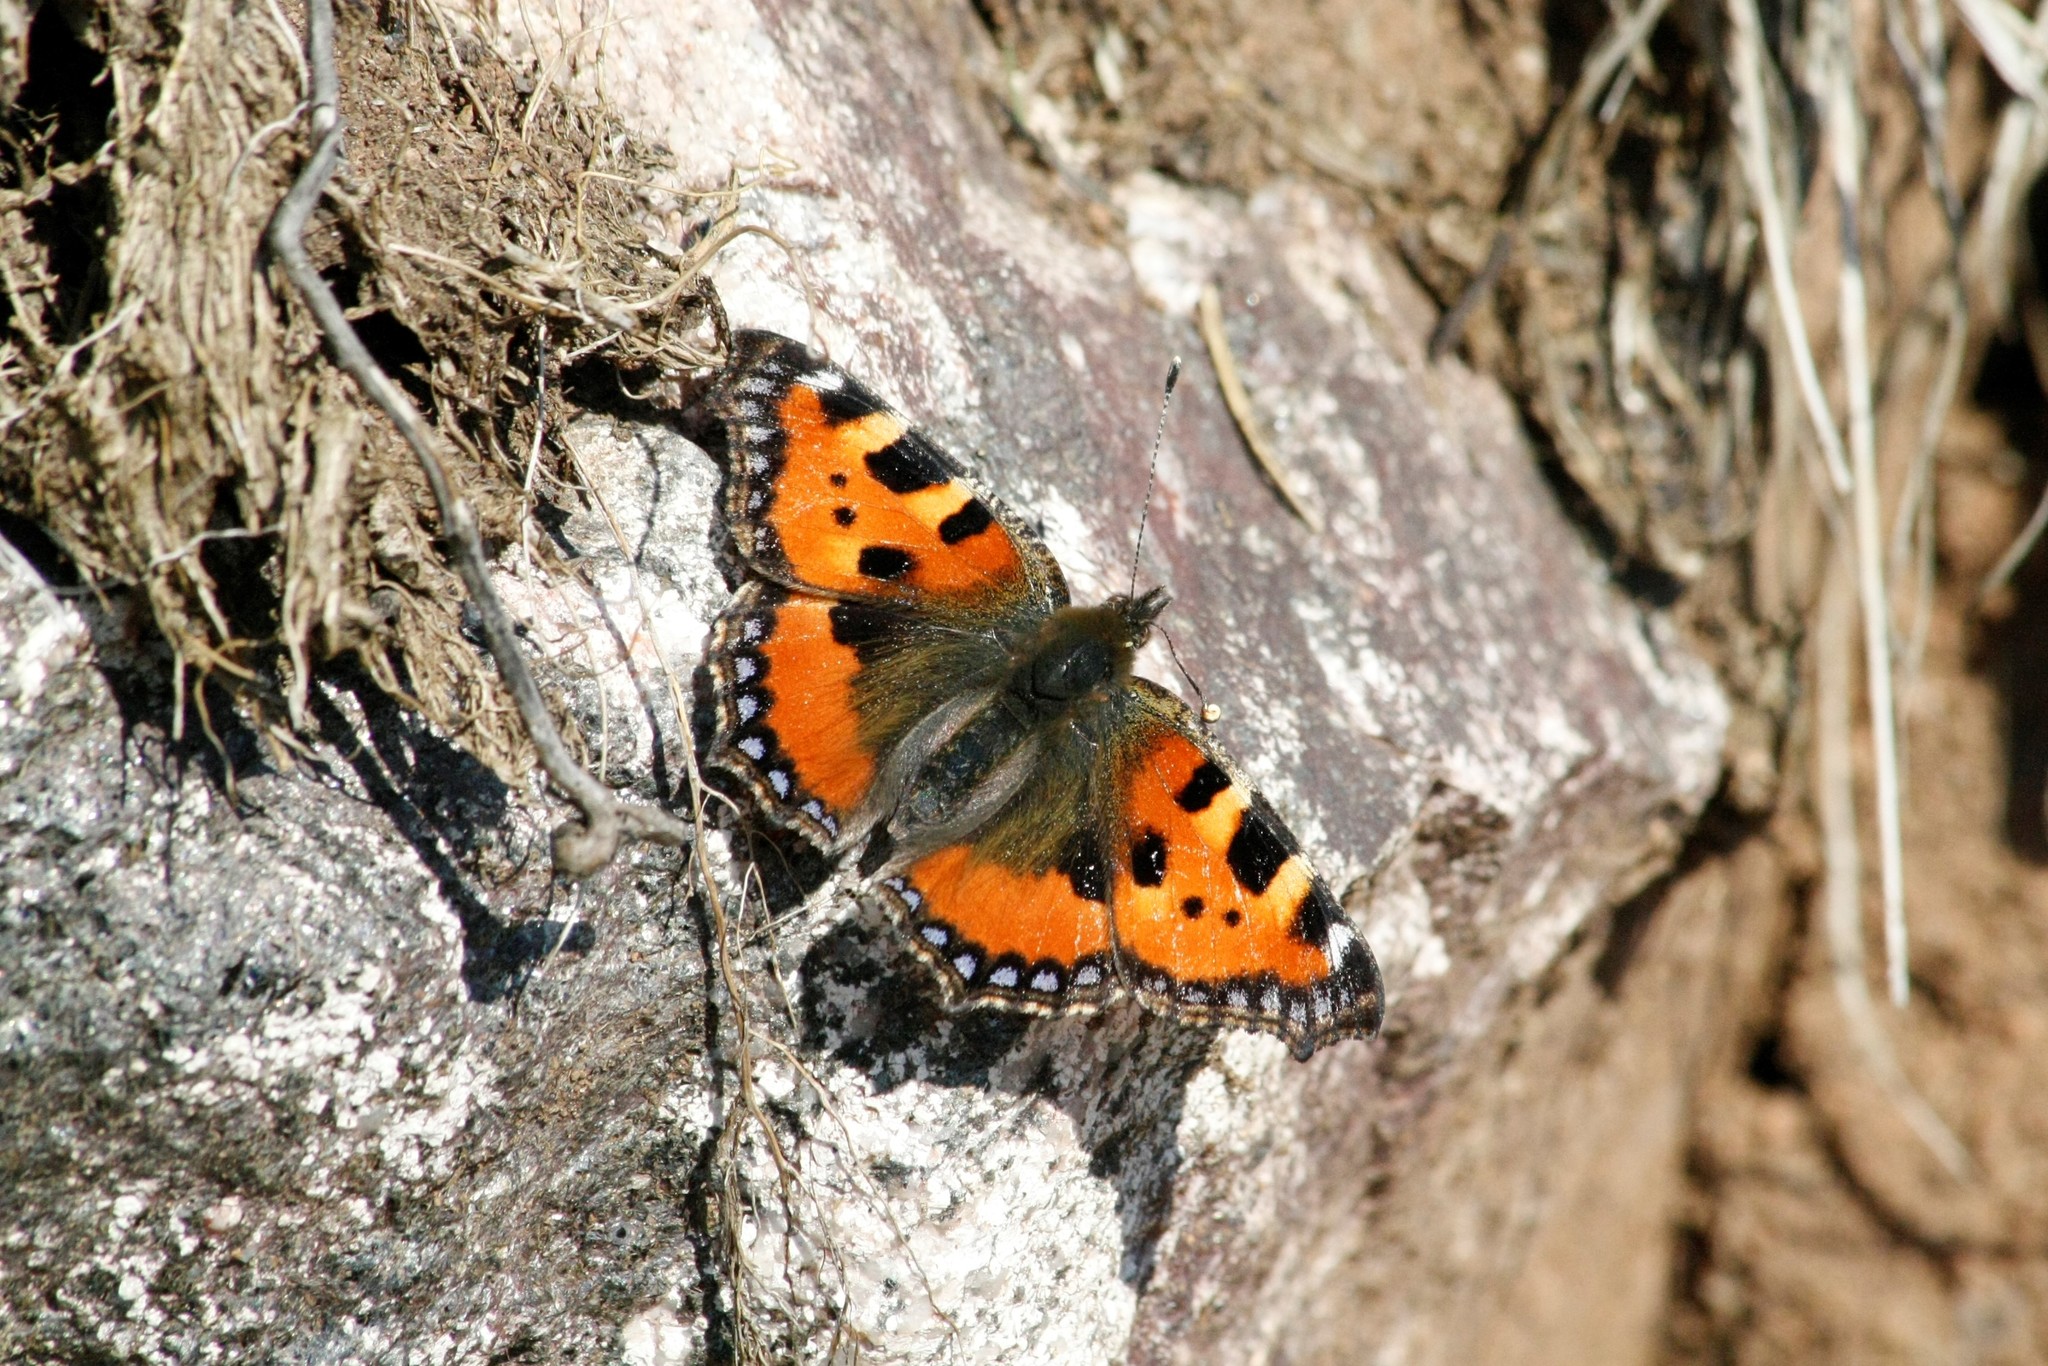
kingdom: Animalia
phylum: Arthropoda
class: Insecta
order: Lepidoptera
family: Nymphalidae
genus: Aglais
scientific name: Aglais urticae
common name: Small tortoiseshell
